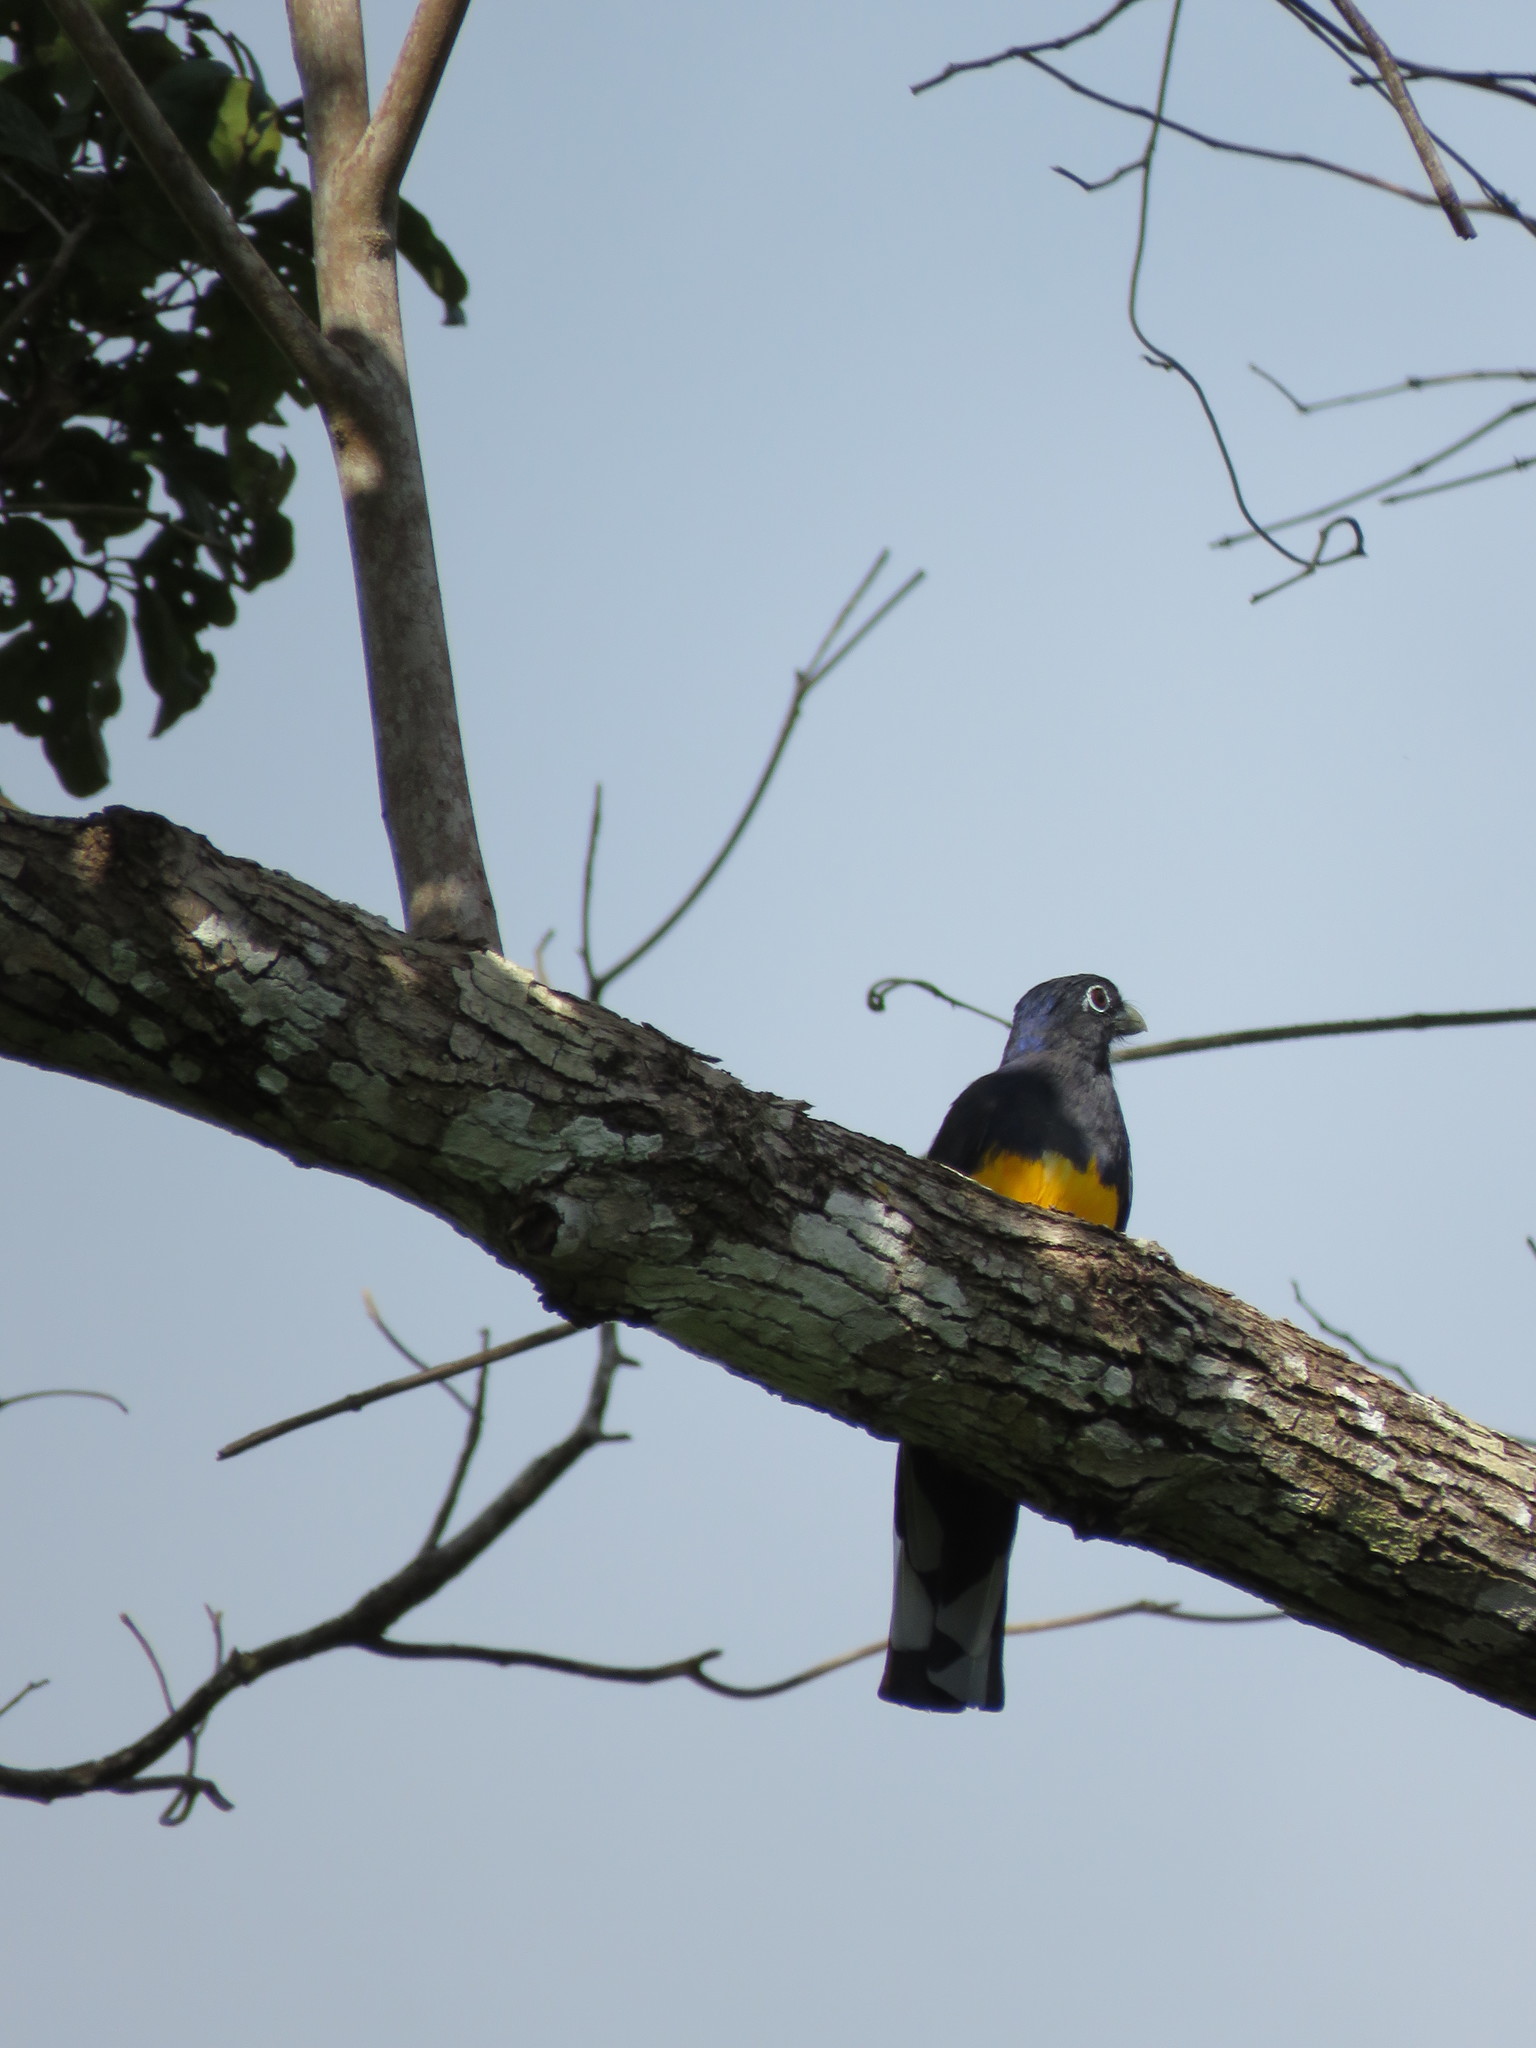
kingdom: Animalia
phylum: Chordata
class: Aves
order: Trogoniformes
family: Trogonidae
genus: Trogon
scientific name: Trogon viridis
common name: Green-backed trogon
